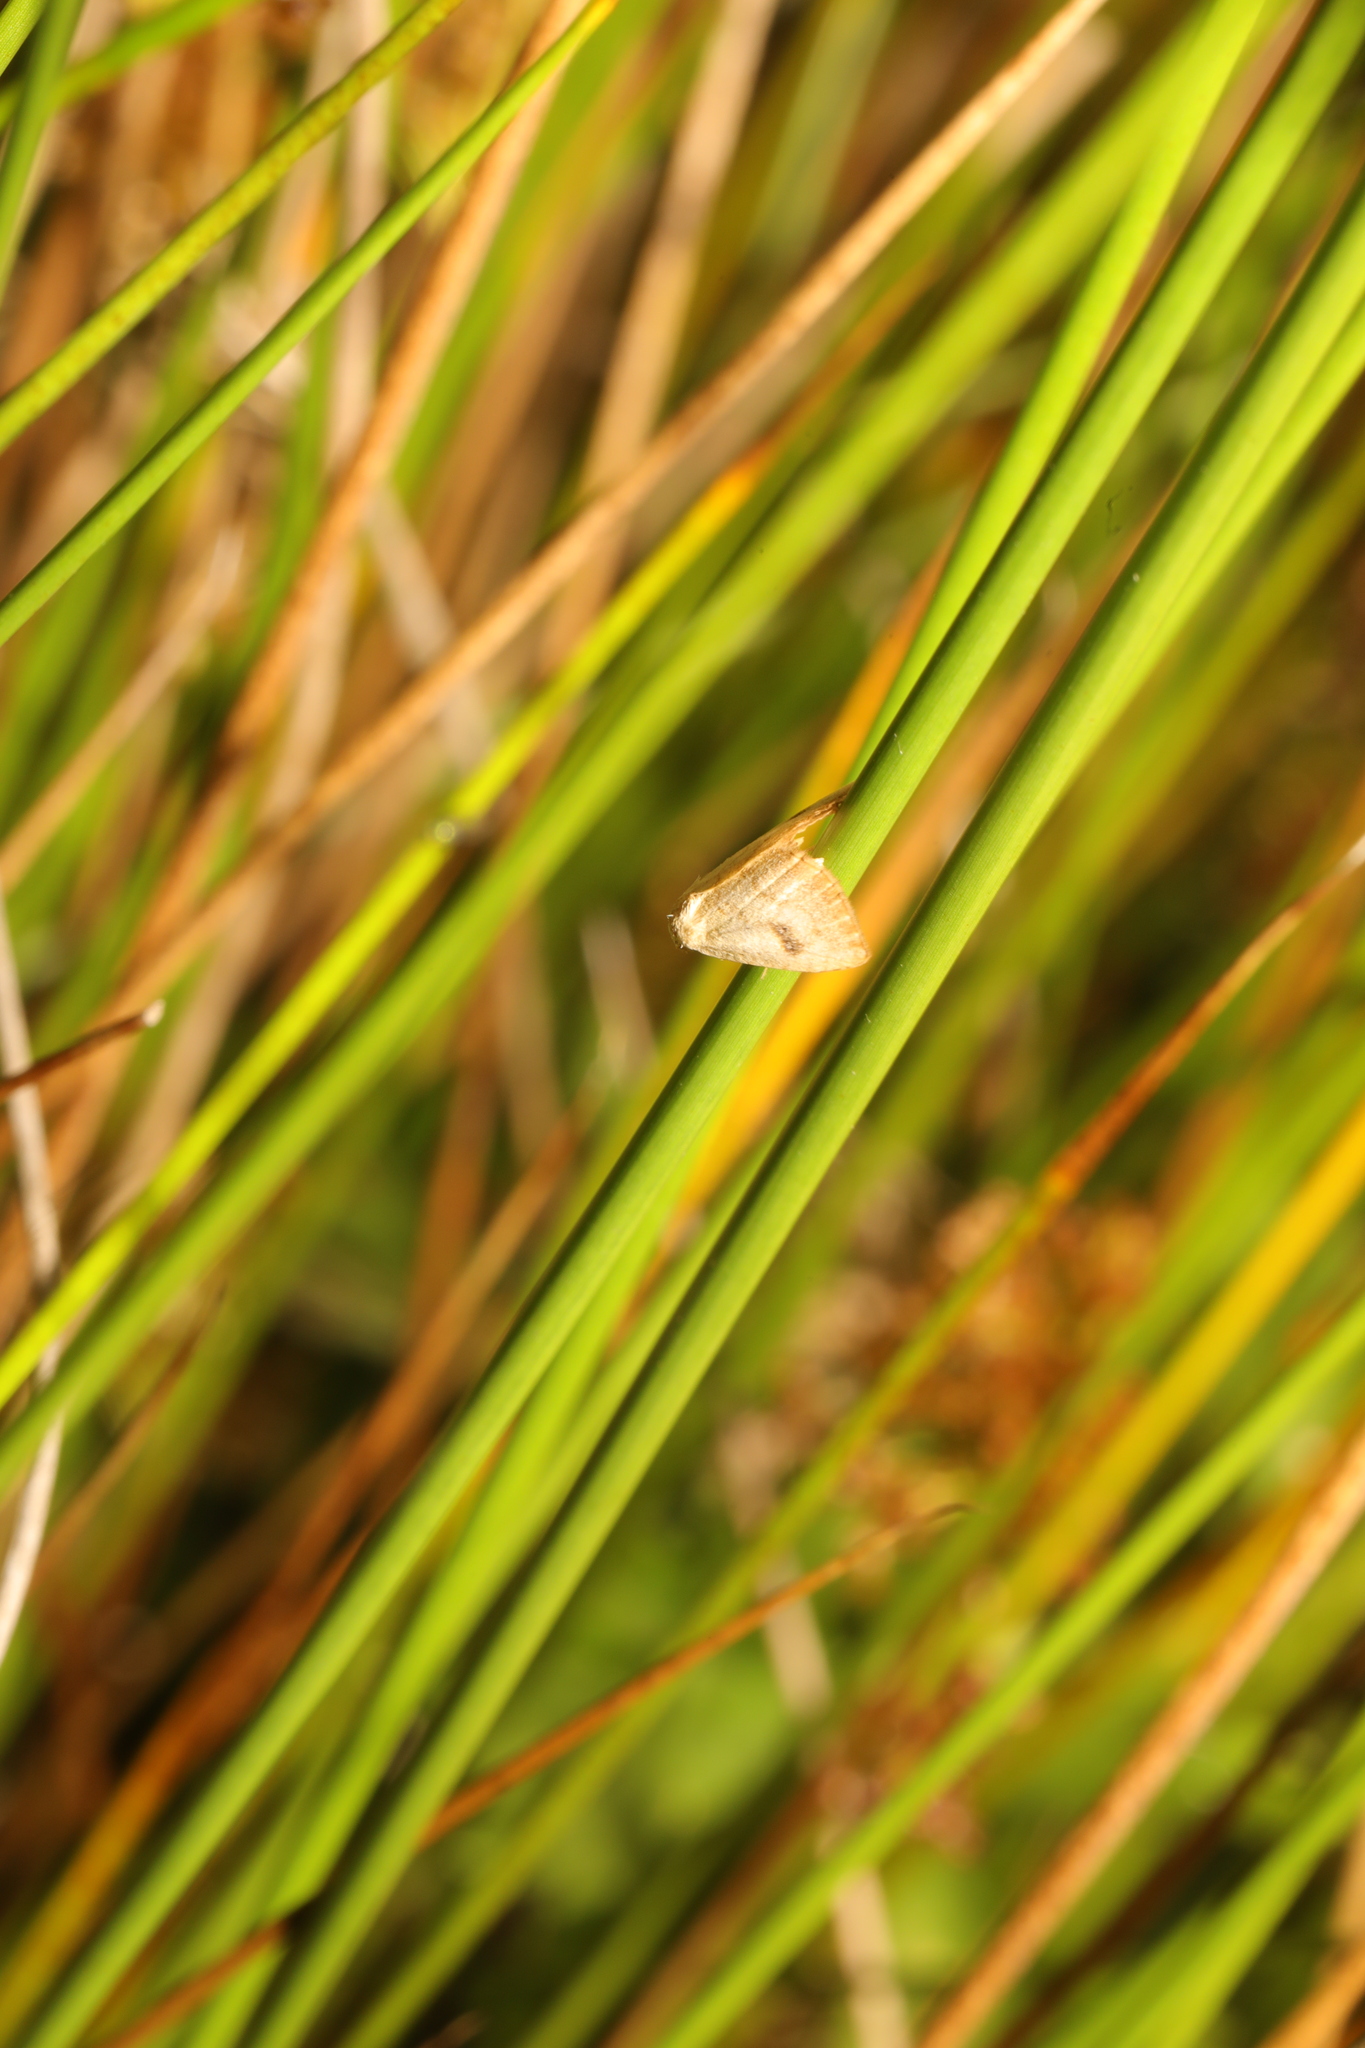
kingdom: Animalia
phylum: Arthropoda
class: Insecta
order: Lepidoptera
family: Erebidae
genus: Rivula
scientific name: Rivula sericealis
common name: Straw dot
